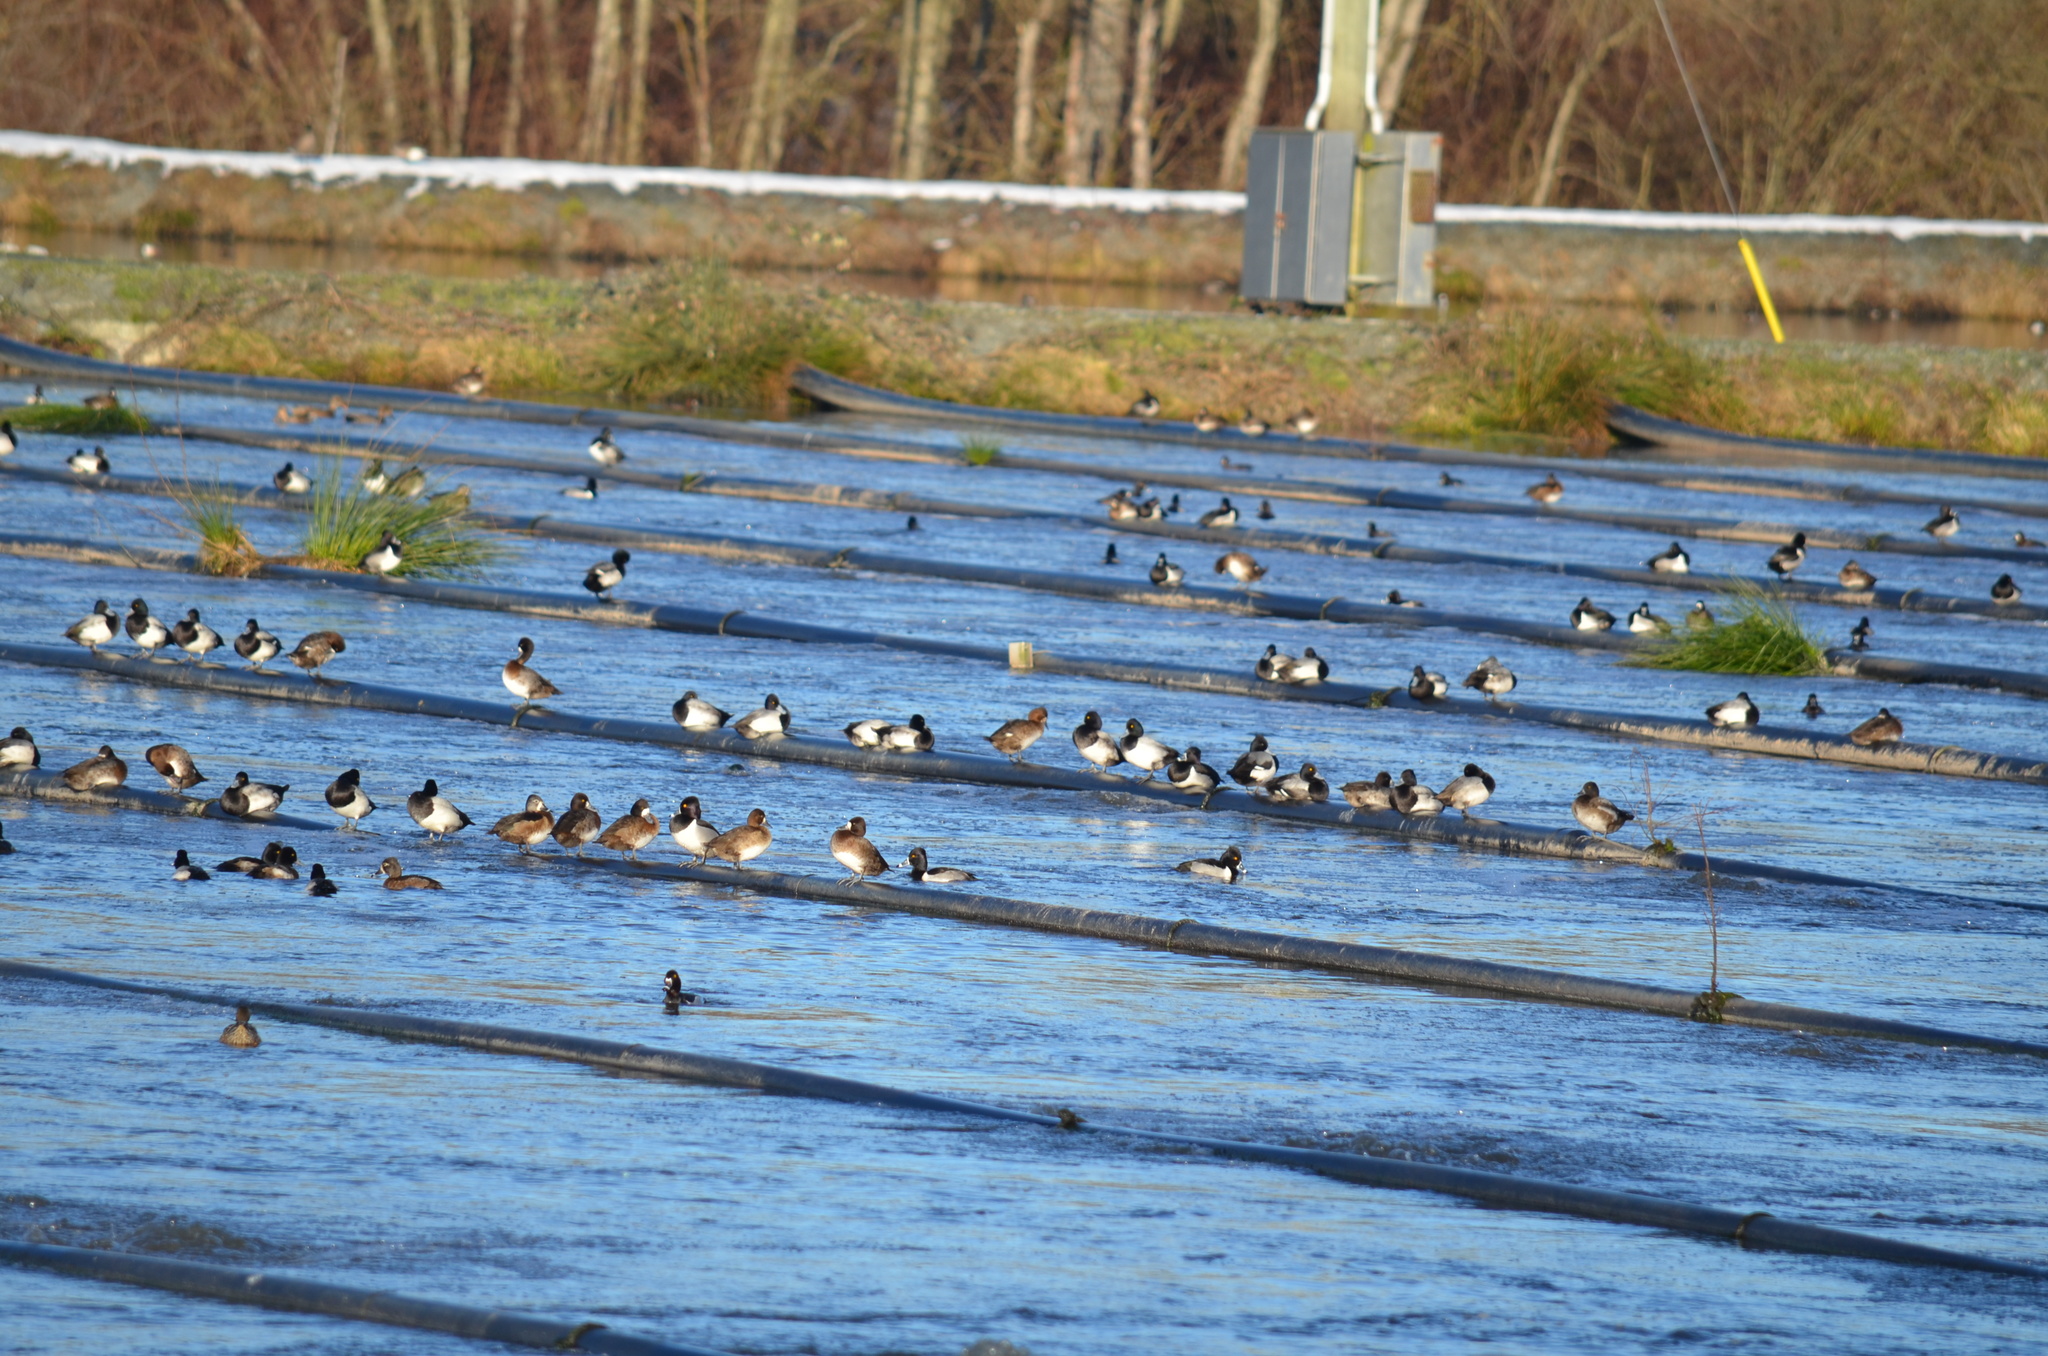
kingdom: Animalia
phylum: Chordata
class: Aves
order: Anseriformes
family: Anatidae
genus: Aythya
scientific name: Aythya collaris
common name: Ring-necked duck
